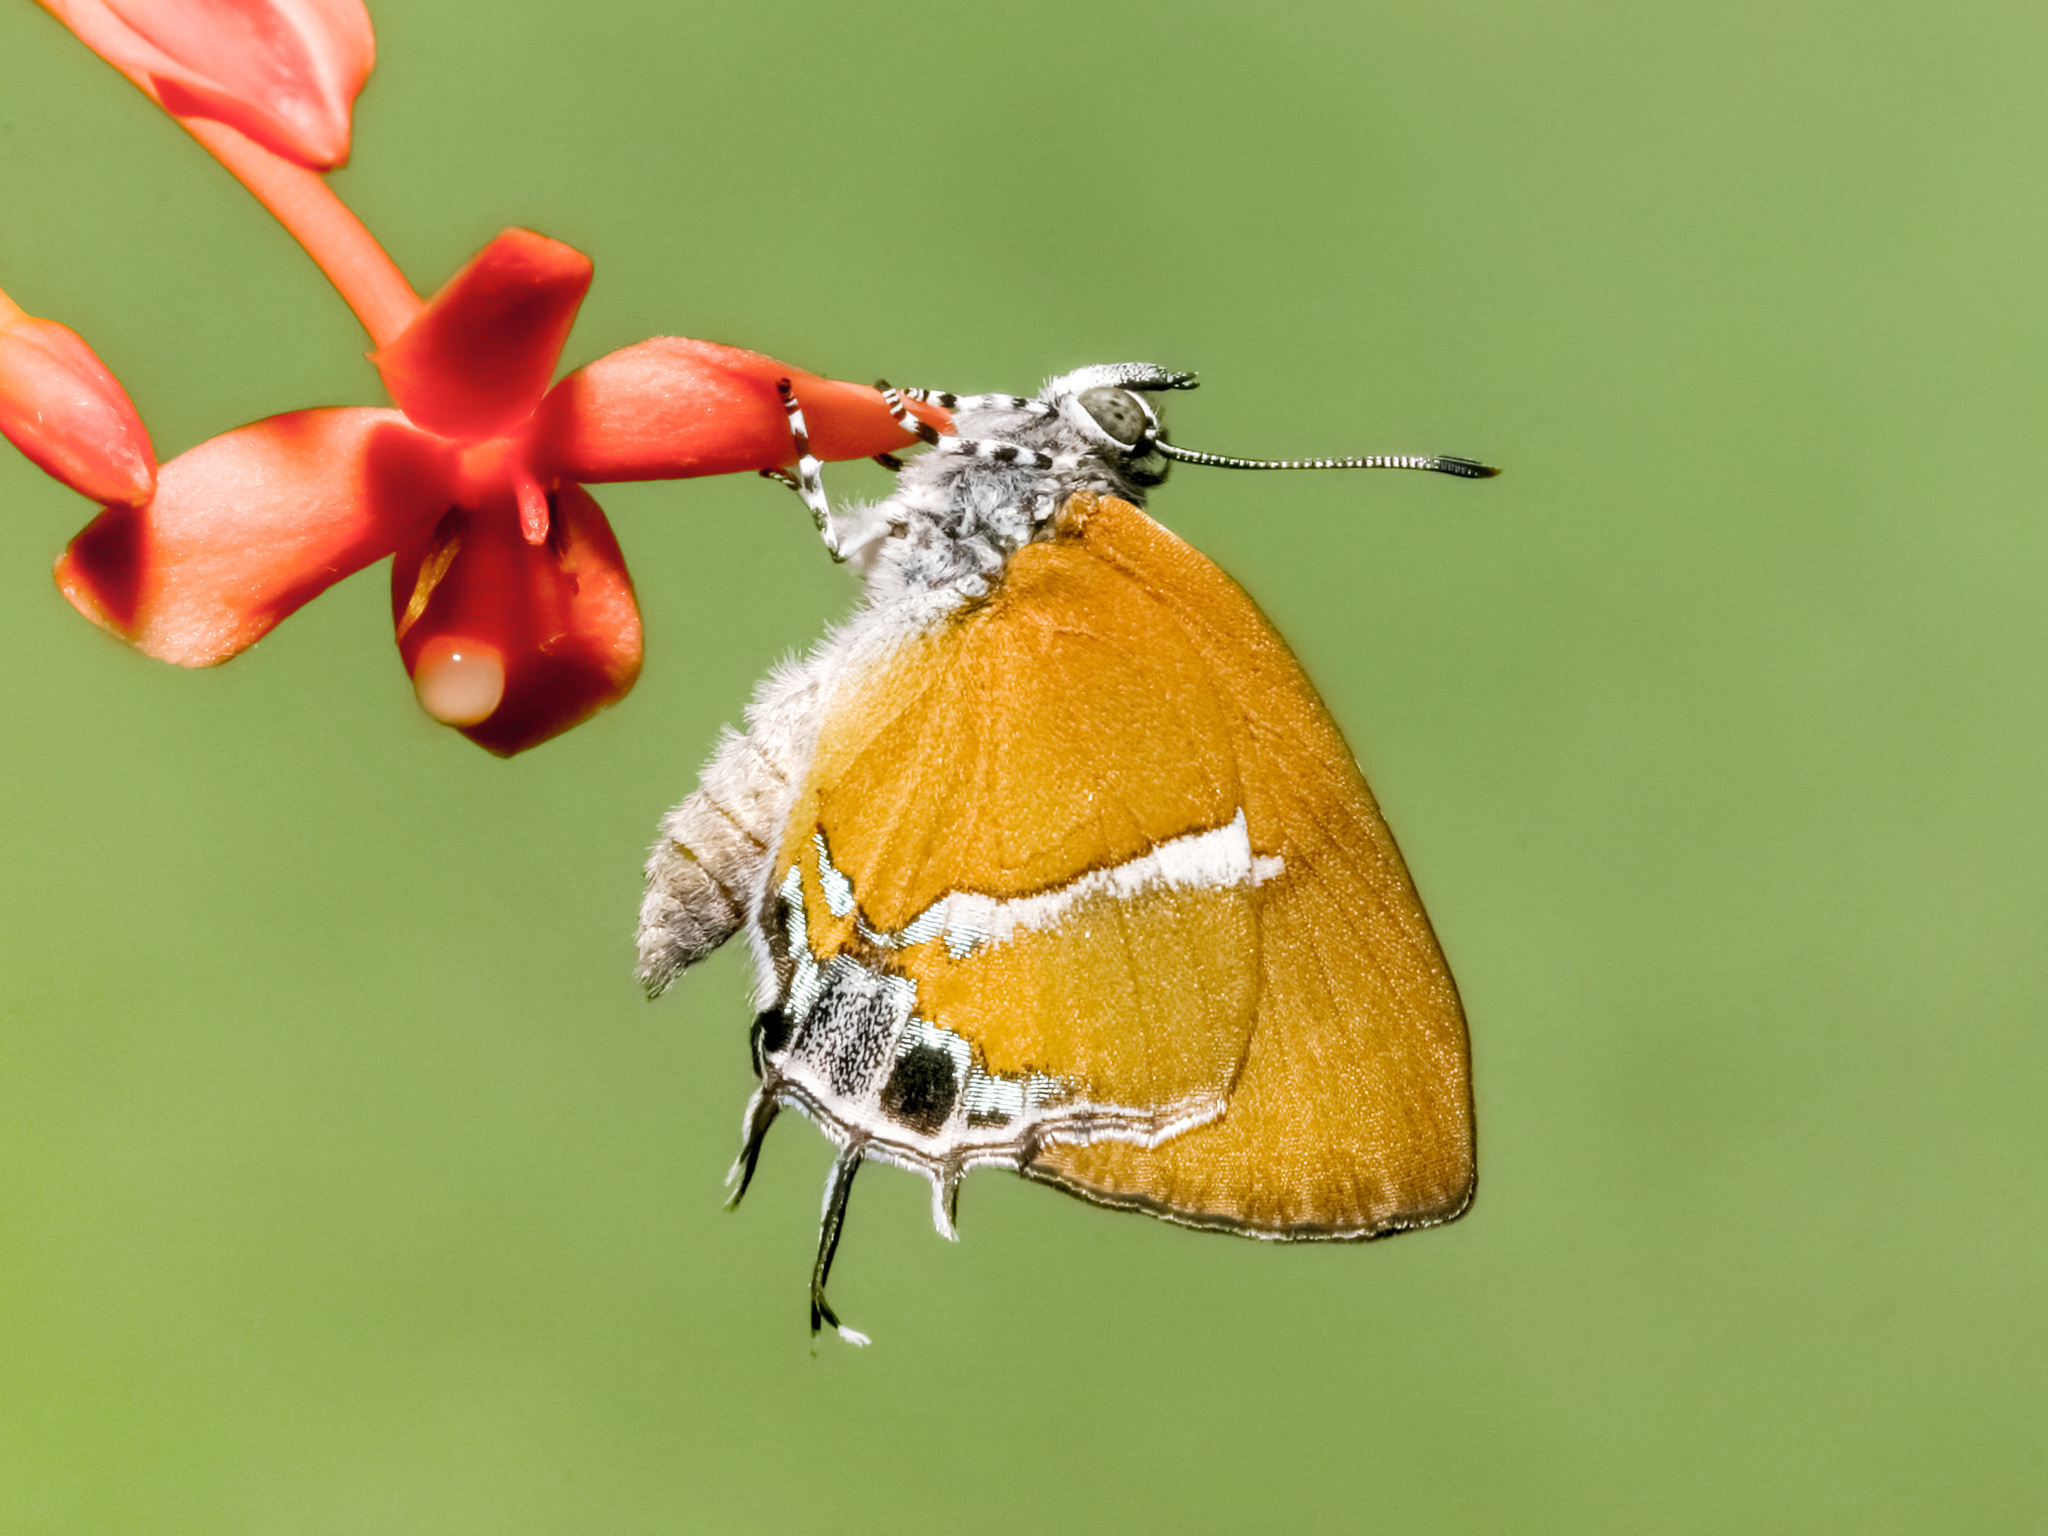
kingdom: Animalia
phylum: Arthropoda
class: Insecta
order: Lepidoptera
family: Lycaenidae
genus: Horaga
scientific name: Horaga syrinx
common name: Ambon onyx
